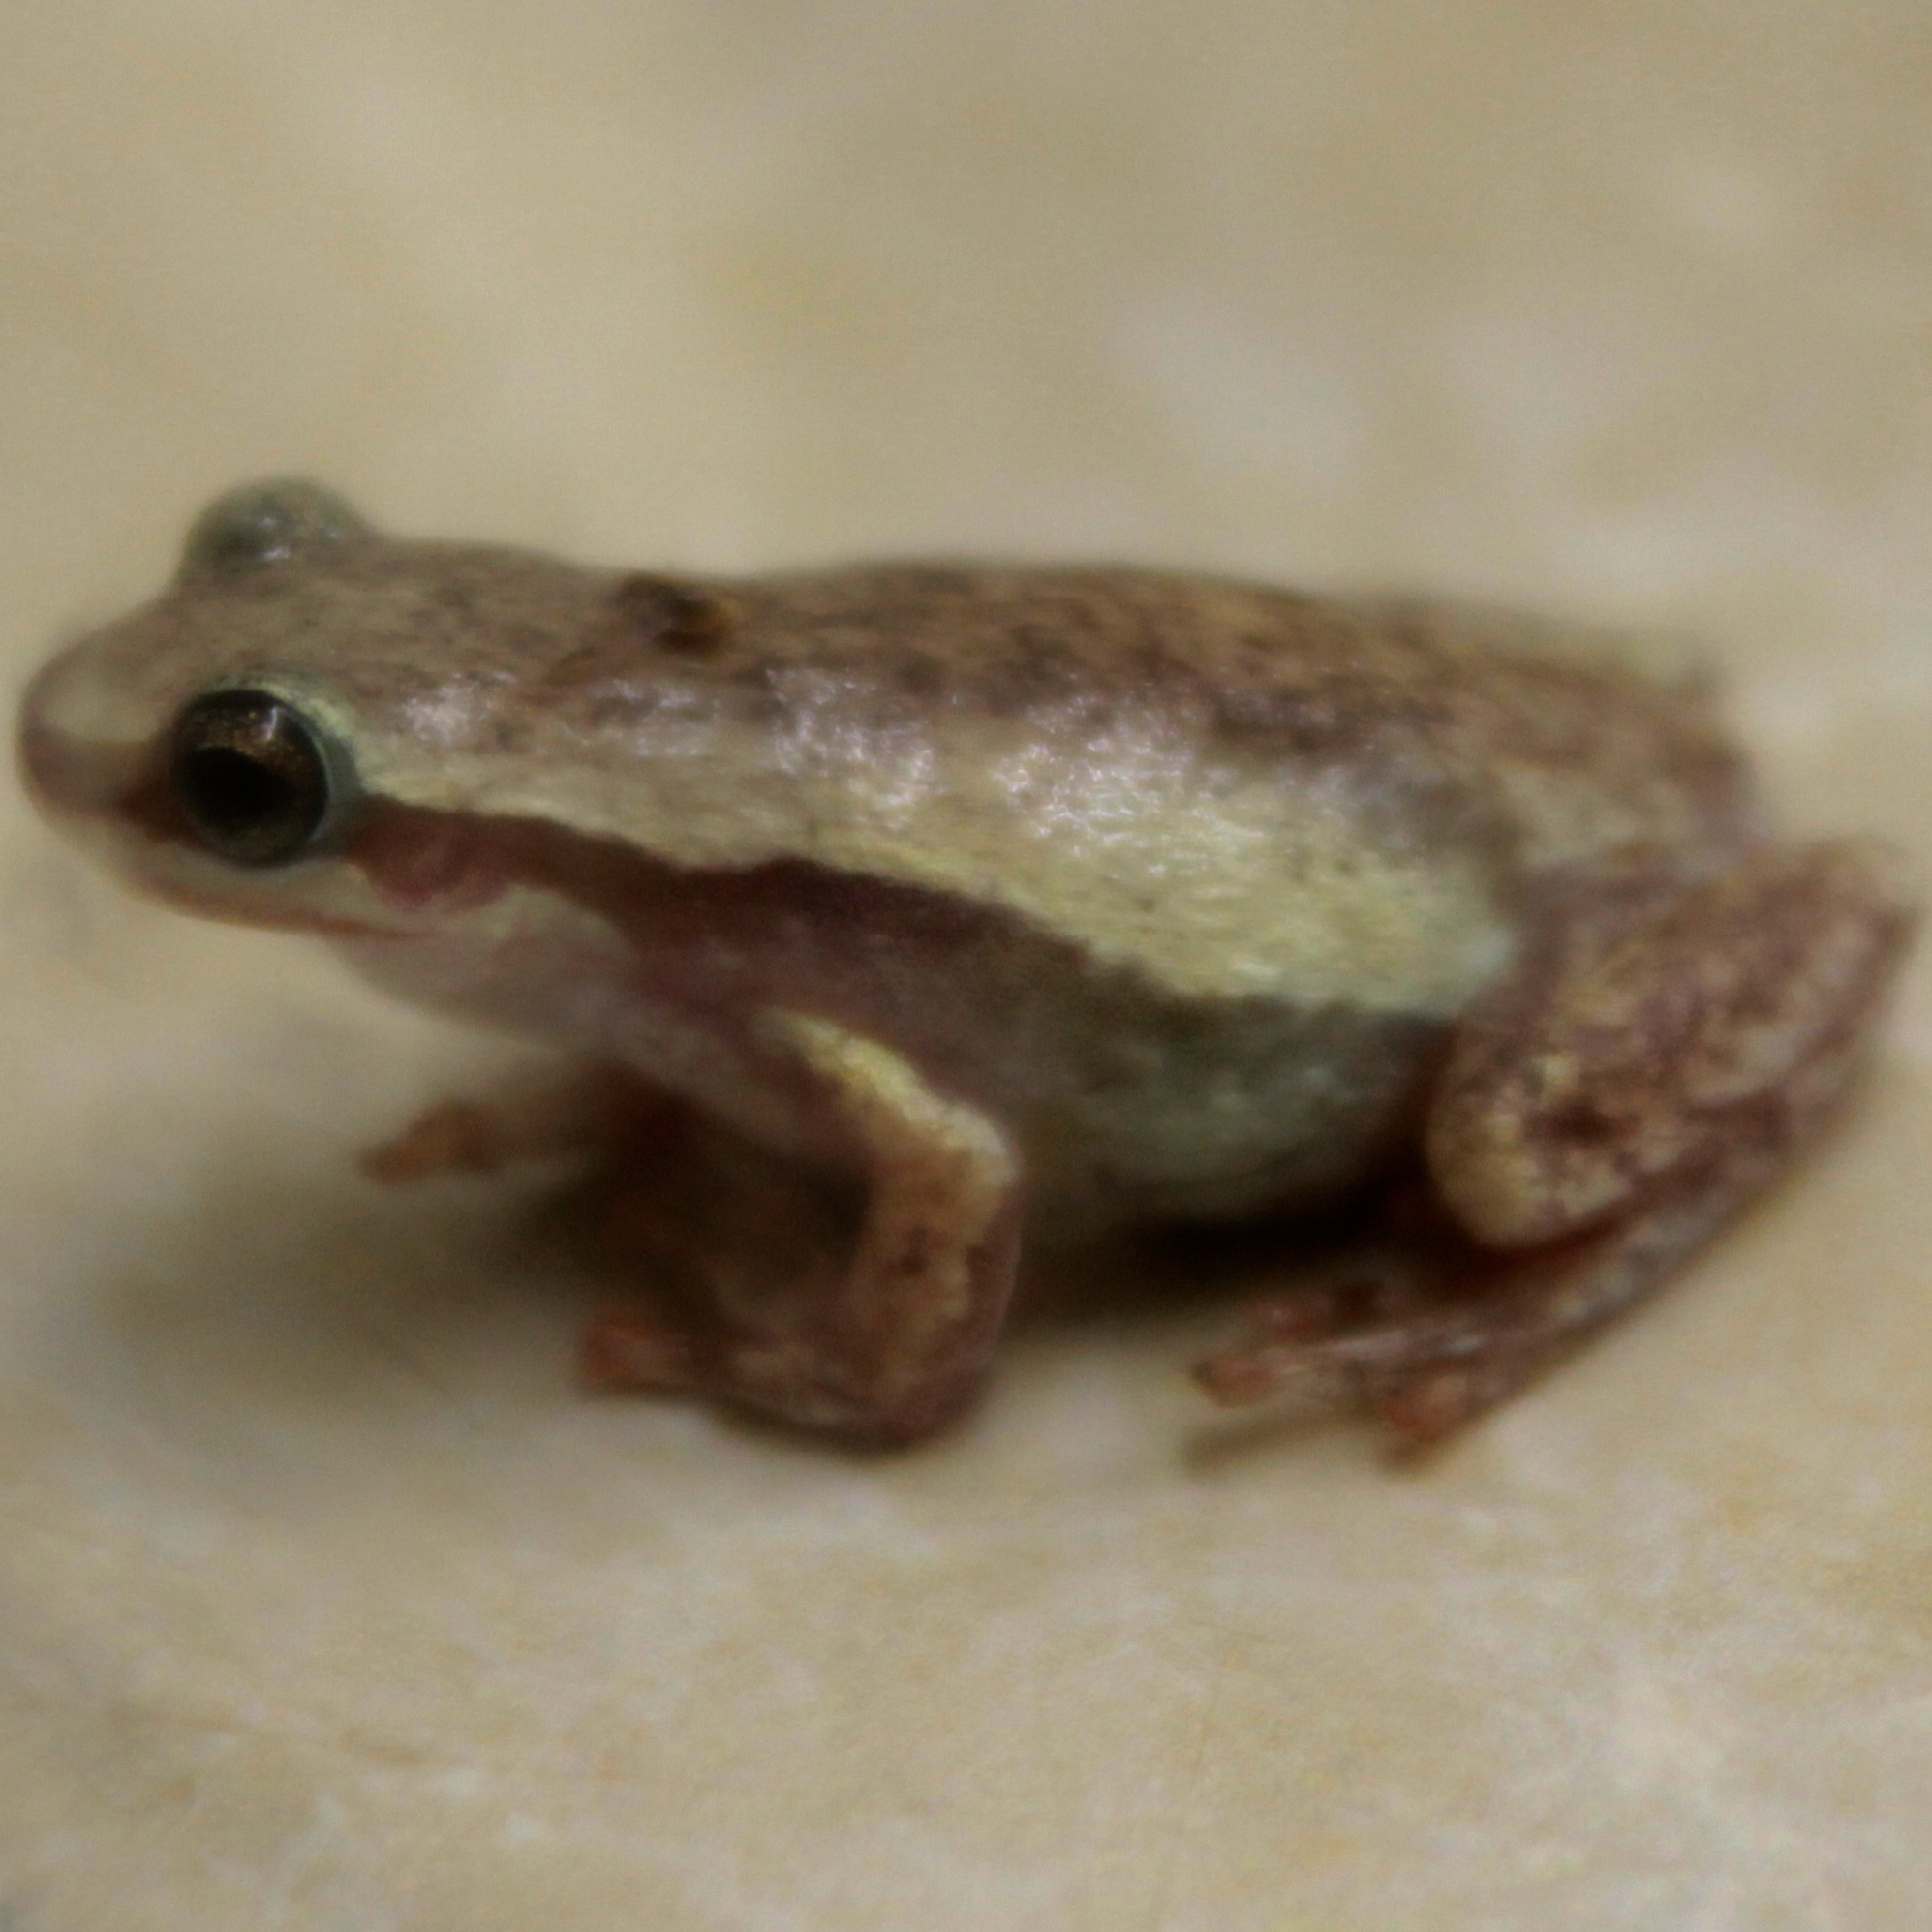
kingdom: Animalia
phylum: Chordata
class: Amphibia
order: Anura
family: Pelodryadidae
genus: Litoria
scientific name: Litoria rubella
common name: Desert tree frog
